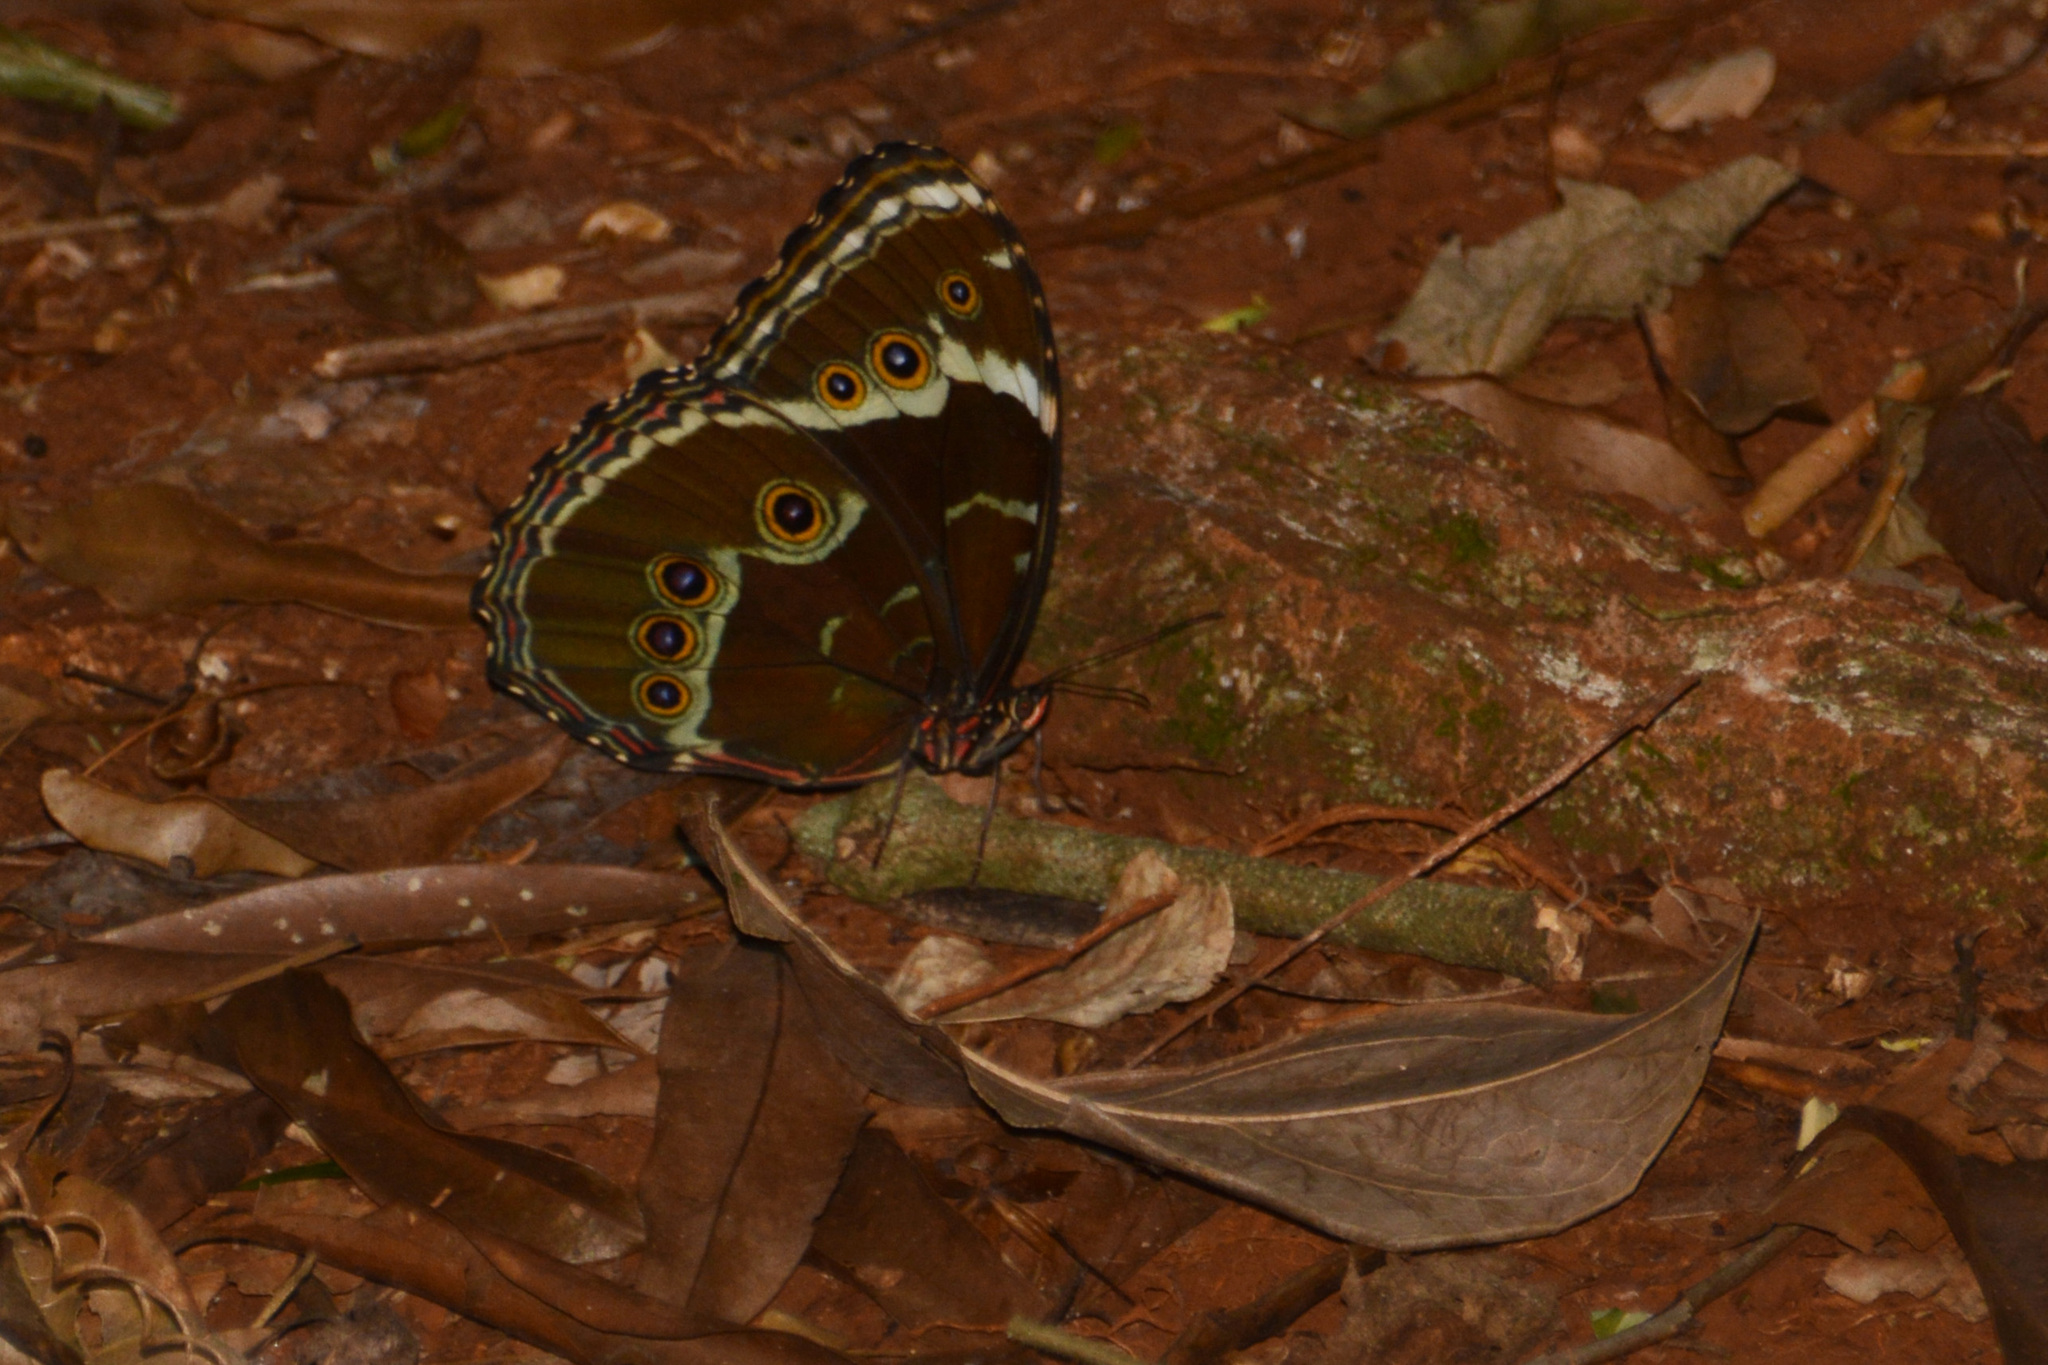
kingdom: Animalia
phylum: Arthropoda
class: Insecta
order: Lepidoptera
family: Nymphalidae
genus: Morpho
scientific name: Morpho helenor
